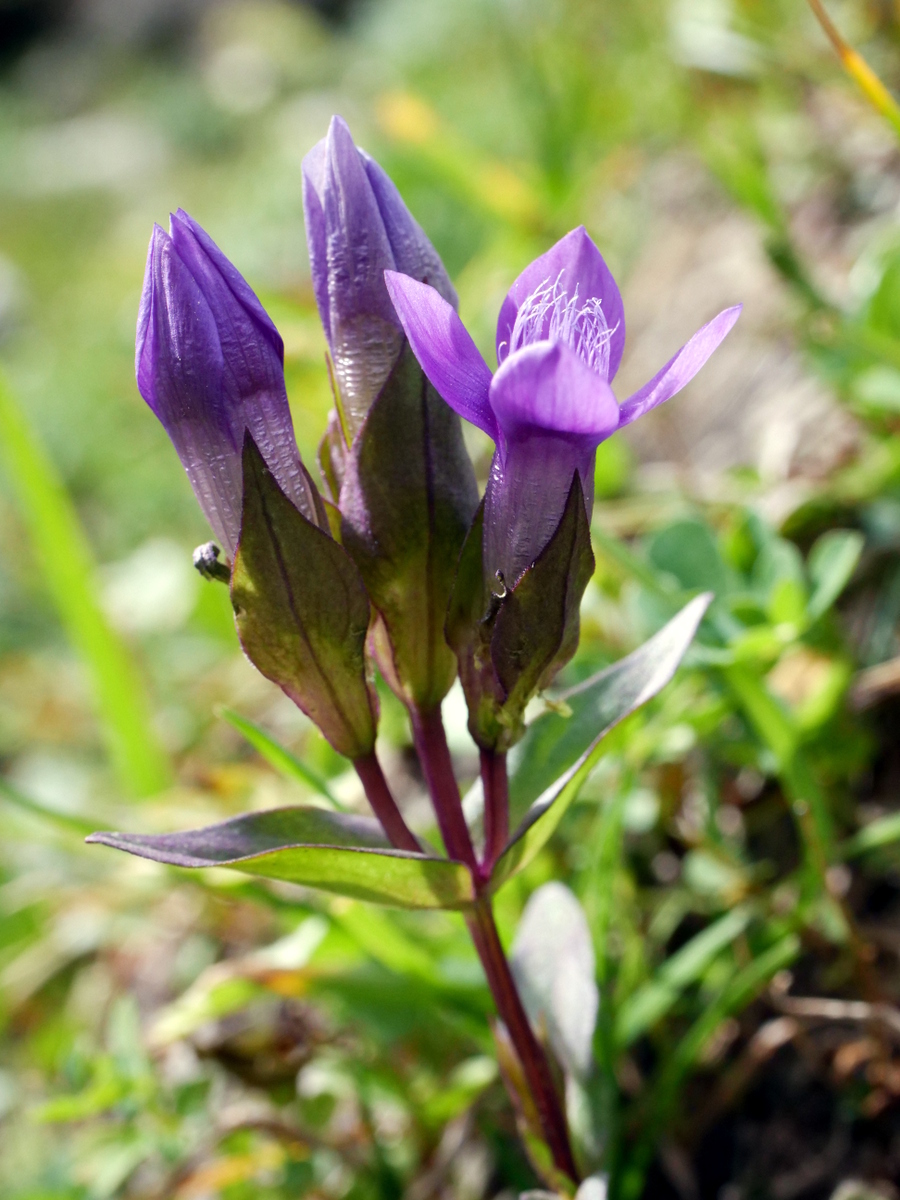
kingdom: Plantae
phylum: Tracheophyta
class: Magnoliopsida
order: Gentianales
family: Gentianaceae
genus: Gentianella
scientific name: Gentianella campestris
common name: Field gentian
